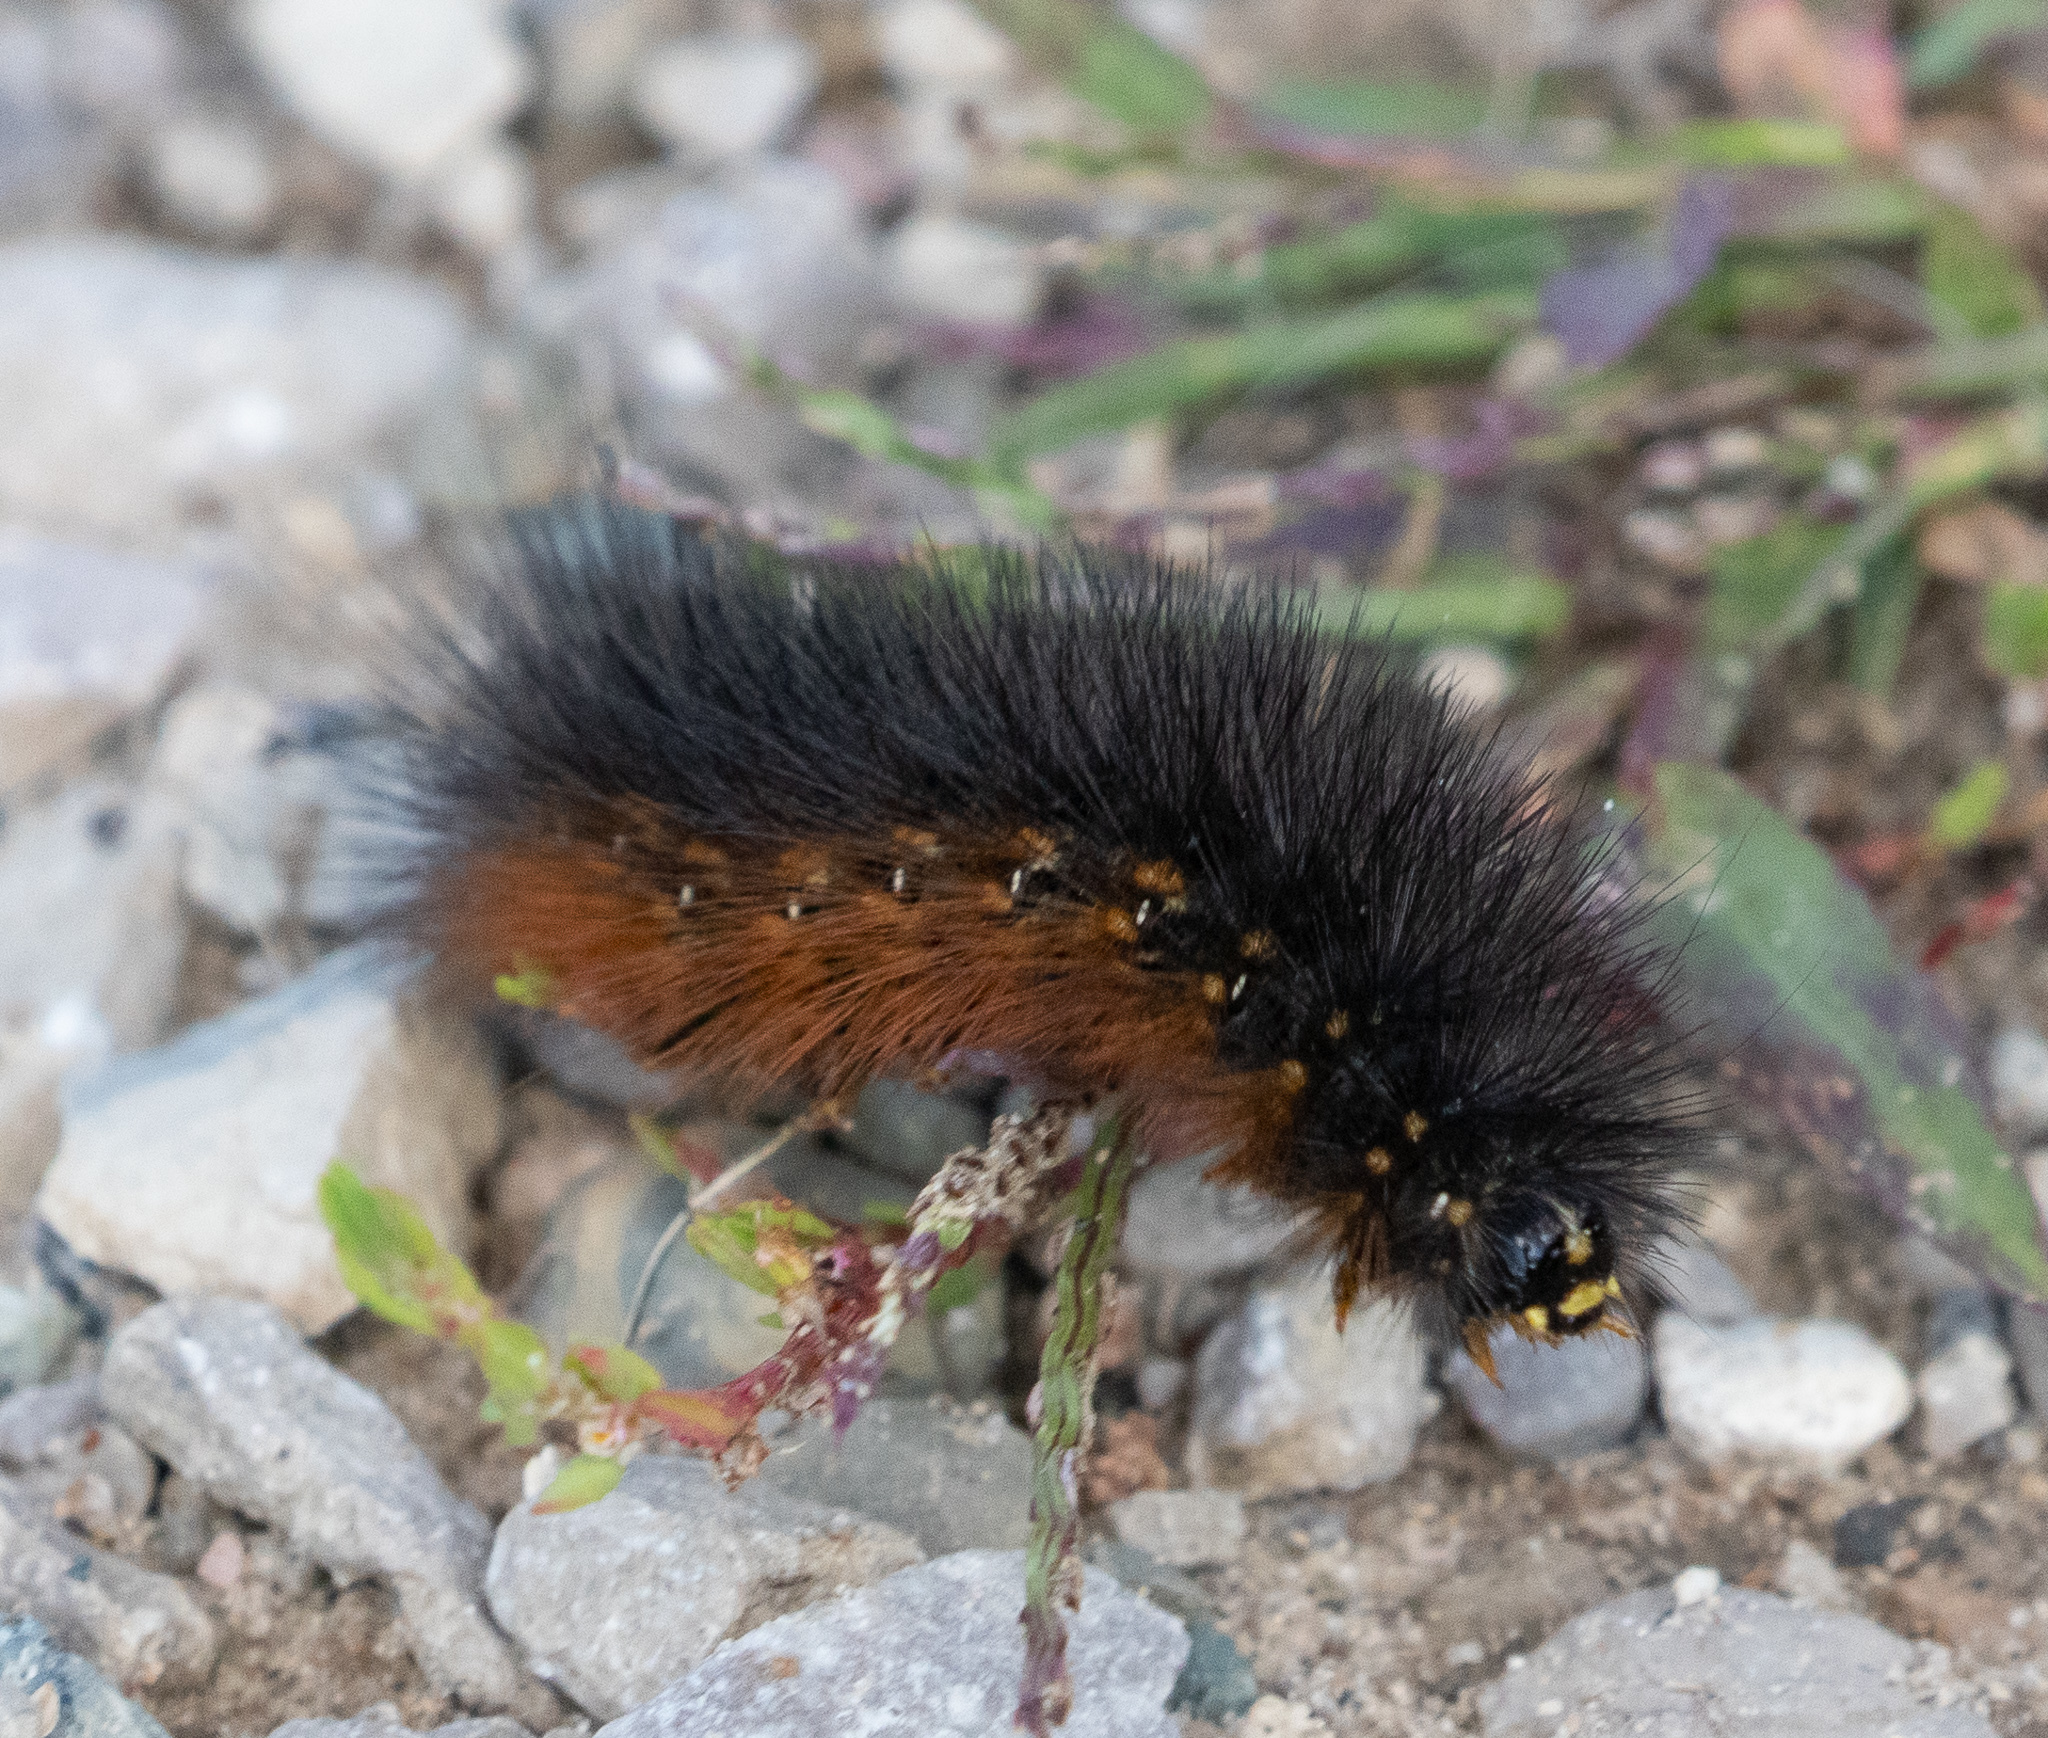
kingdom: Animalia
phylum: Arthropoda
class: Insecta
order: Lepidoptera
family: Erebidae
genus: Estigmene
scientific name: Estigmene acrea
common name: Salt marsh moth
